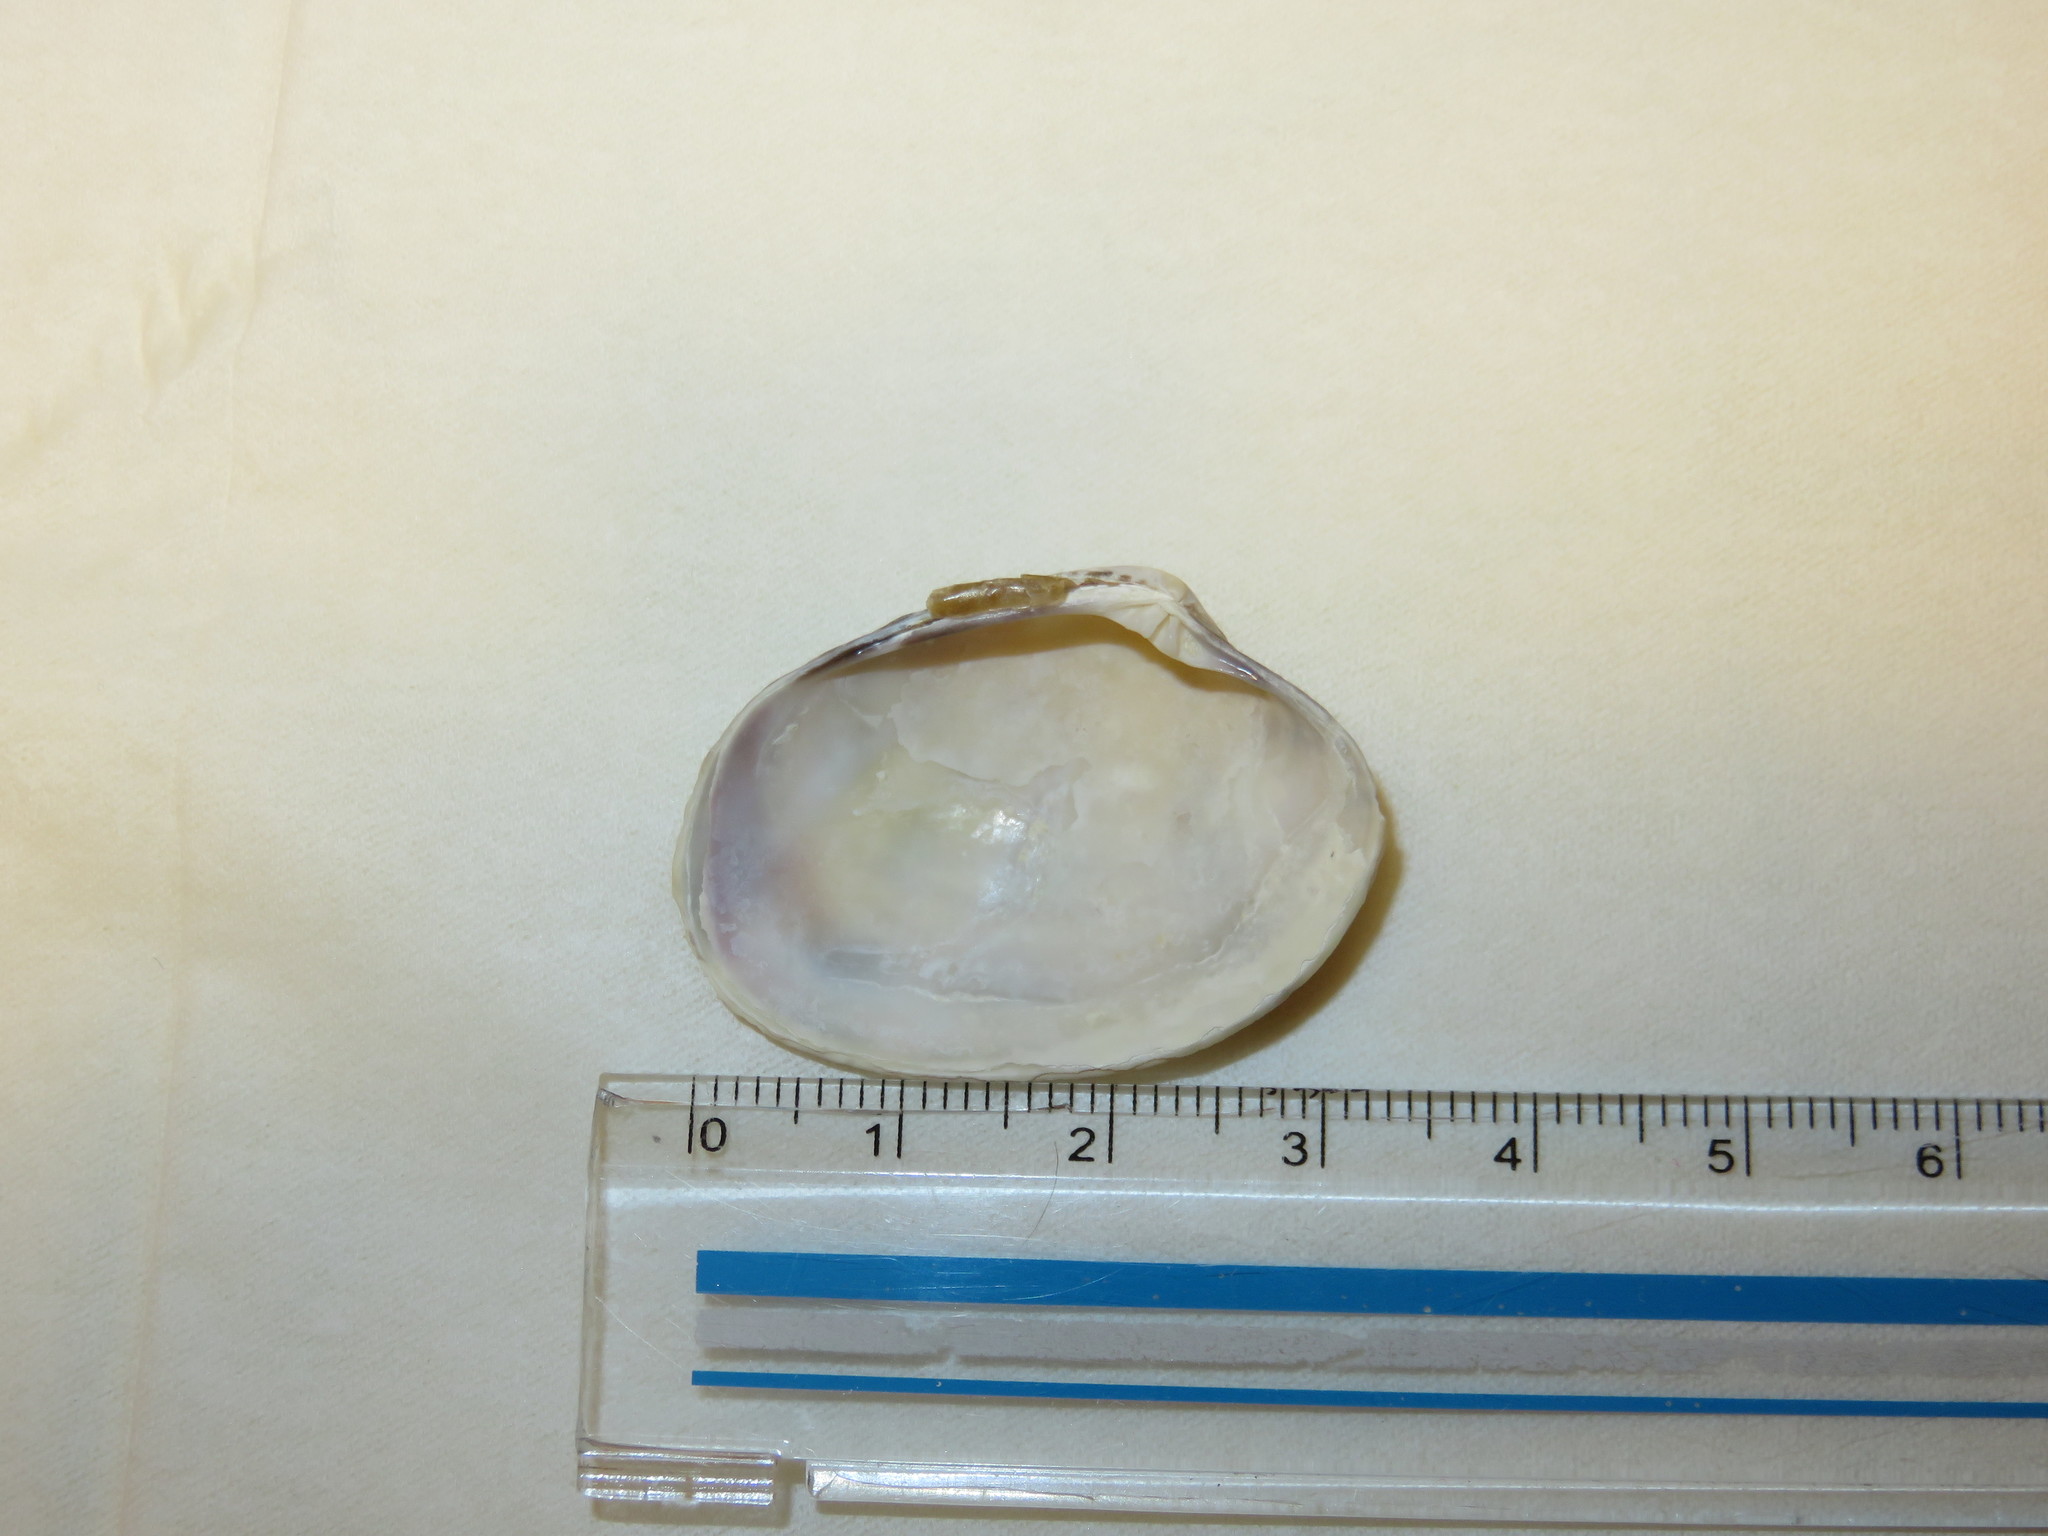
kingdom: Animalia
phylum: Mollusca
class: Bivalvia
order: Venerida
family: Veneridae
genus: Ruditapes
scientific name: Ruditapes philippinarum
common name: Manila clam
